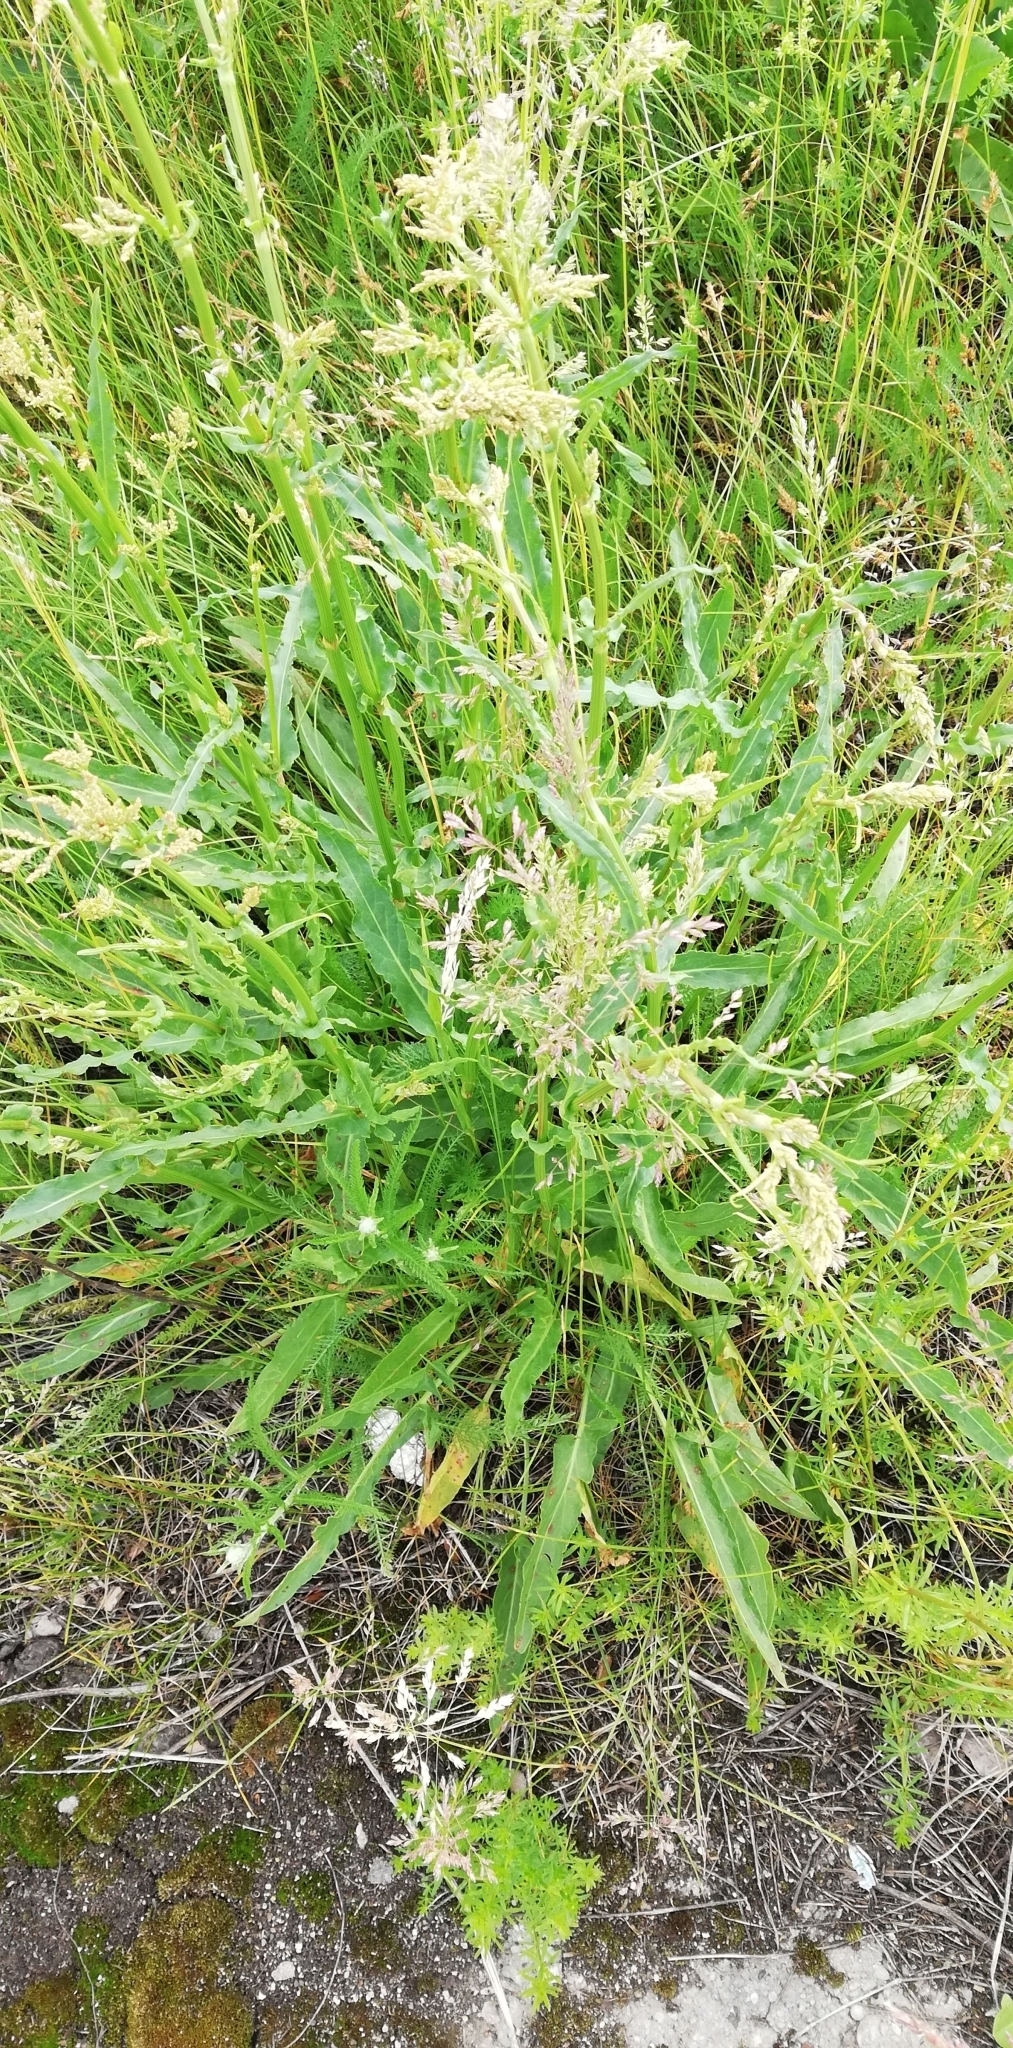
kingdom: Plantae
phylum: Tracheophyta
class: Magnoliopsida
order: Caryophyllales
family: Polygonaceae
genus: Rumex
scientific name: Rumex thyrsiflorus
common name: Garden sorrel
